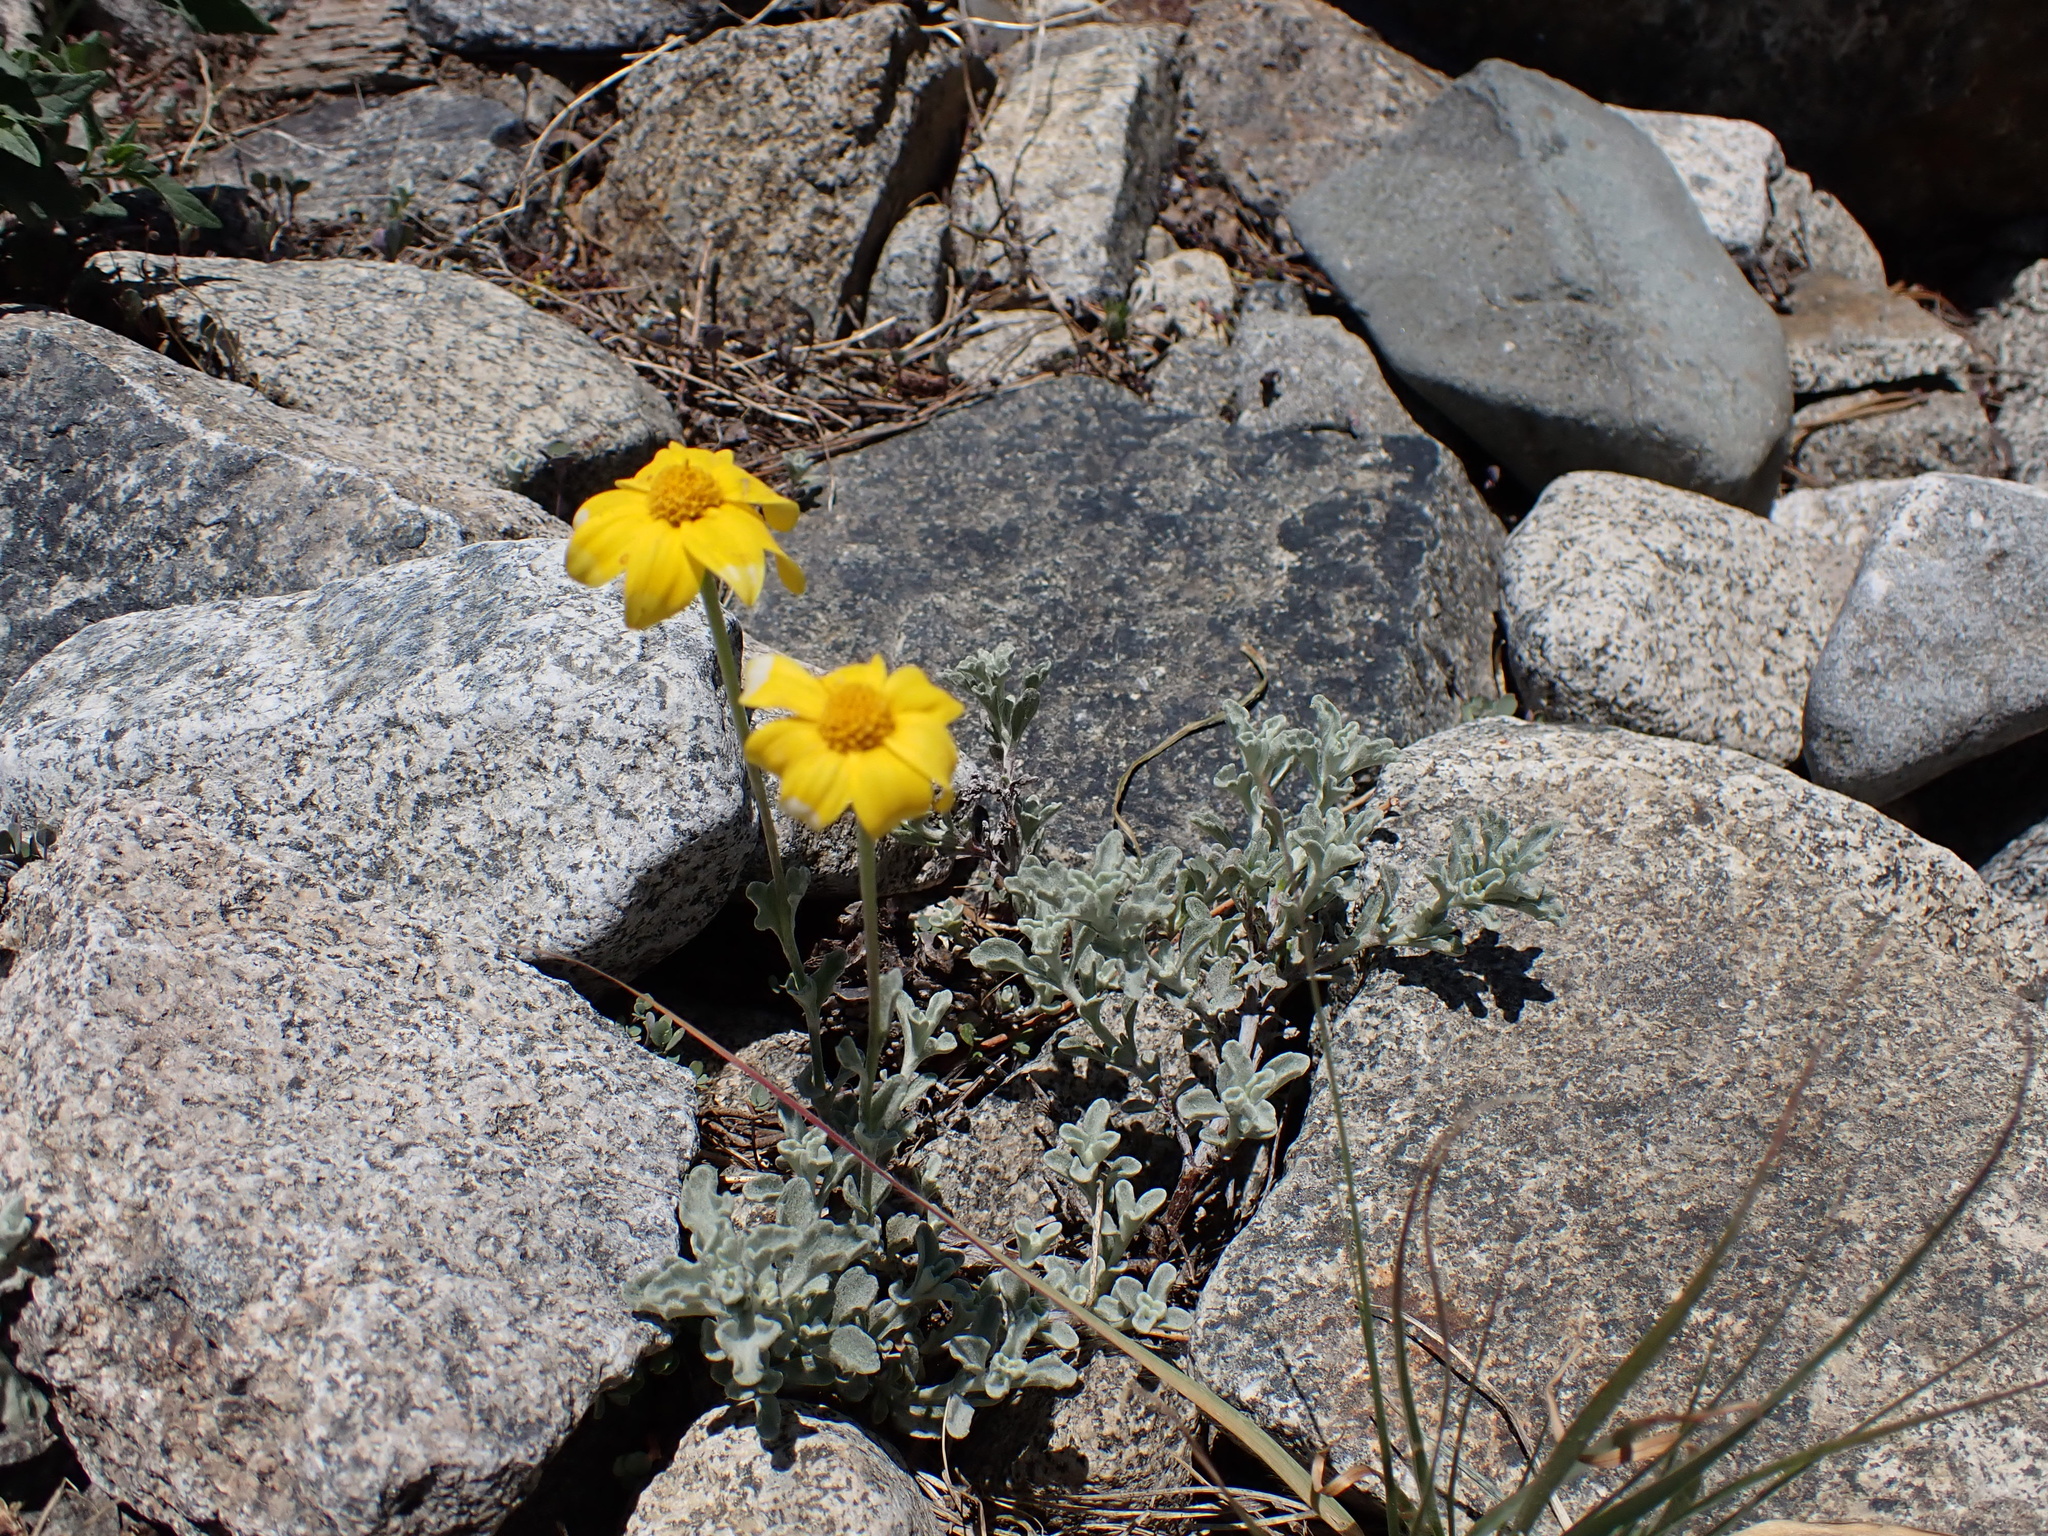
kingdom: Plantae
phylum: Tracheophyta
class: Magnoliopsida
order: Asterales
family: Asteraceae
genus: Eriophyllum
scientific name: Eriophyllum lanatum
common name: Common woolly-sunflower
